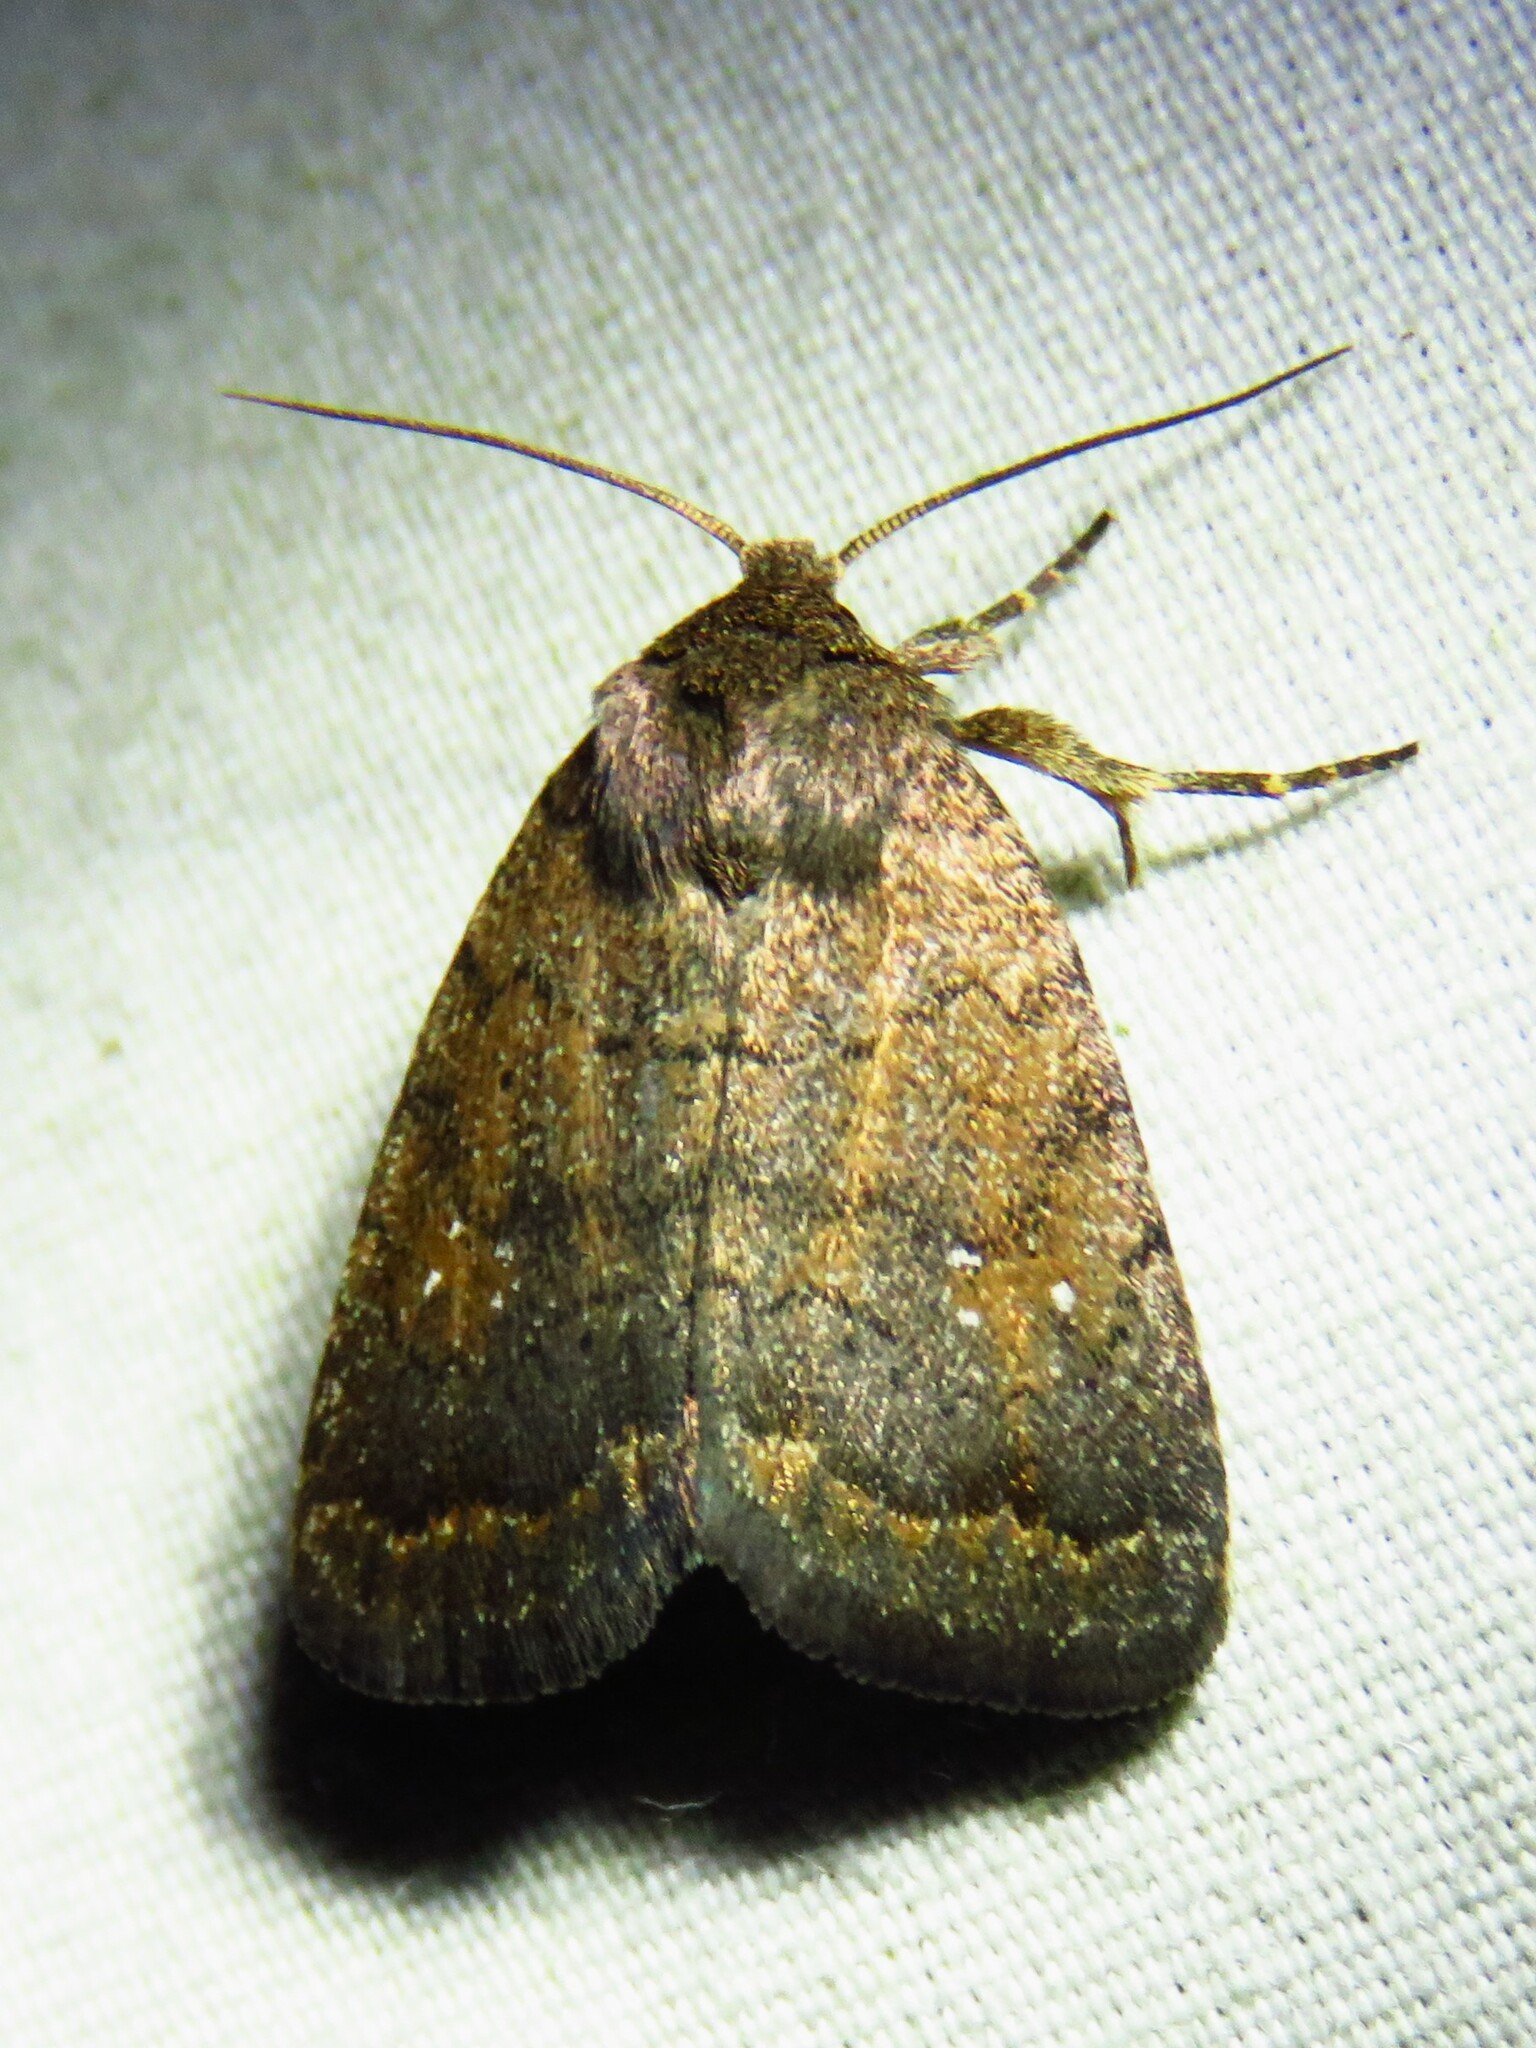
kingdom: Animalia
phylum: Arthropoda
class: Insecta
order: Lepidoptera
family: Noctuidae
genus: Athetis
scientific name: Athetis tarda
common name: Slowpoke moth
